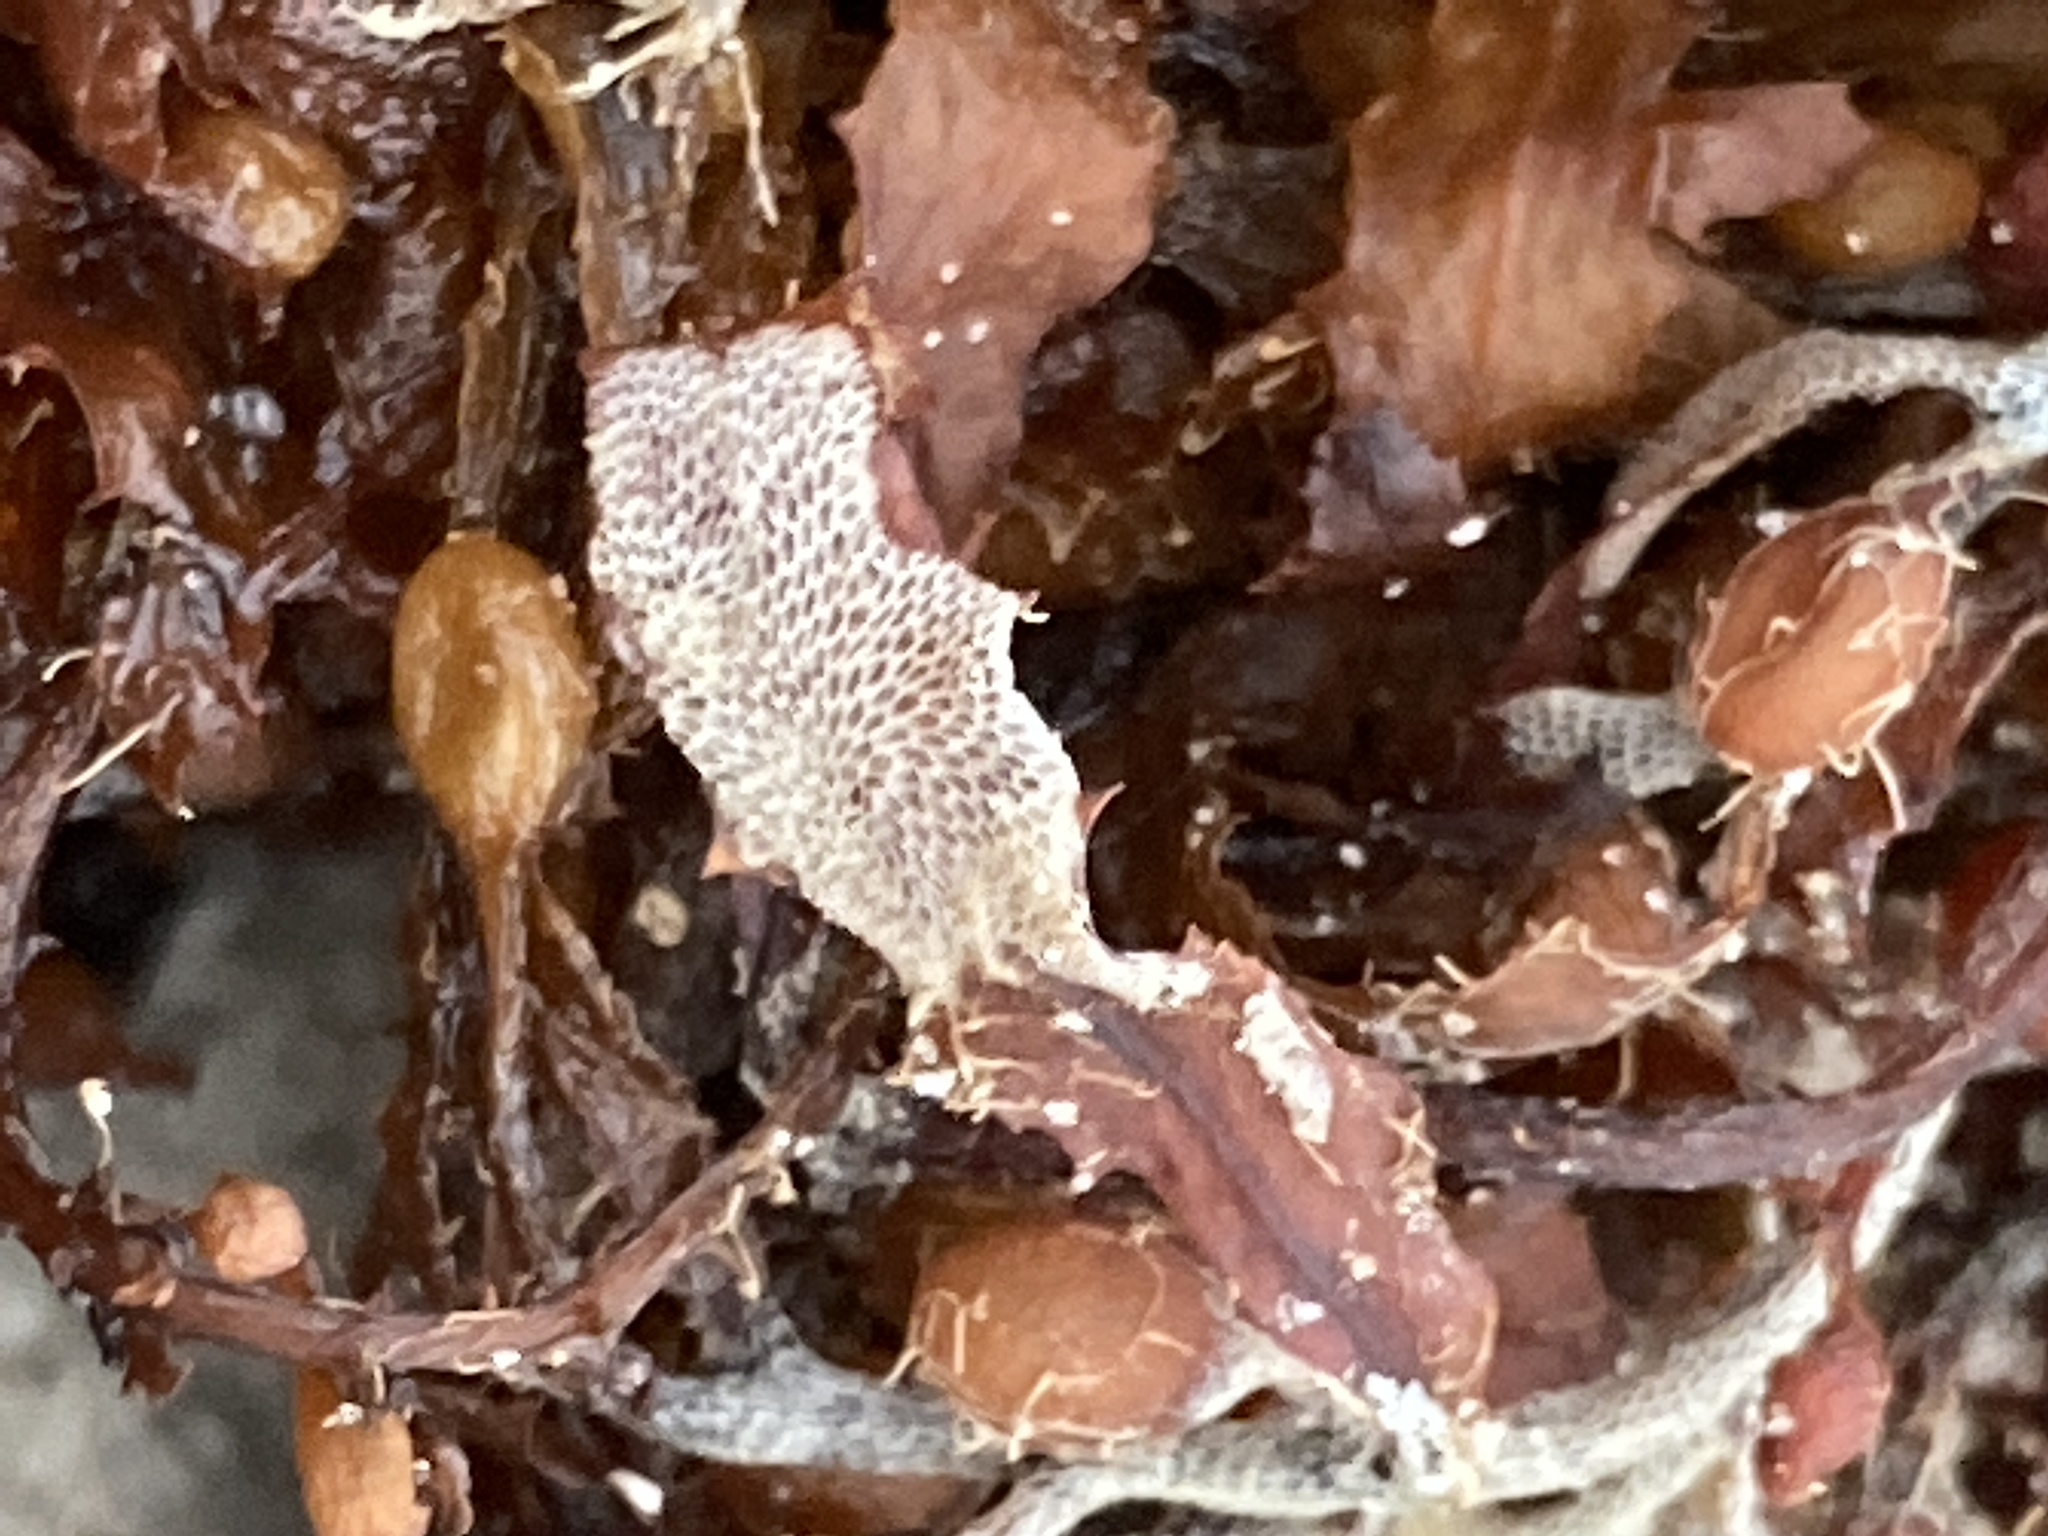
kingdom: Animalia
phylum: Bryozoa
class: Gymnolaemata
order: Cheilostomatida
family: Membraniporidae
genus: Jellyella
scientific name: Jellyella tuberculata
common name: Sargassum bryozoan
